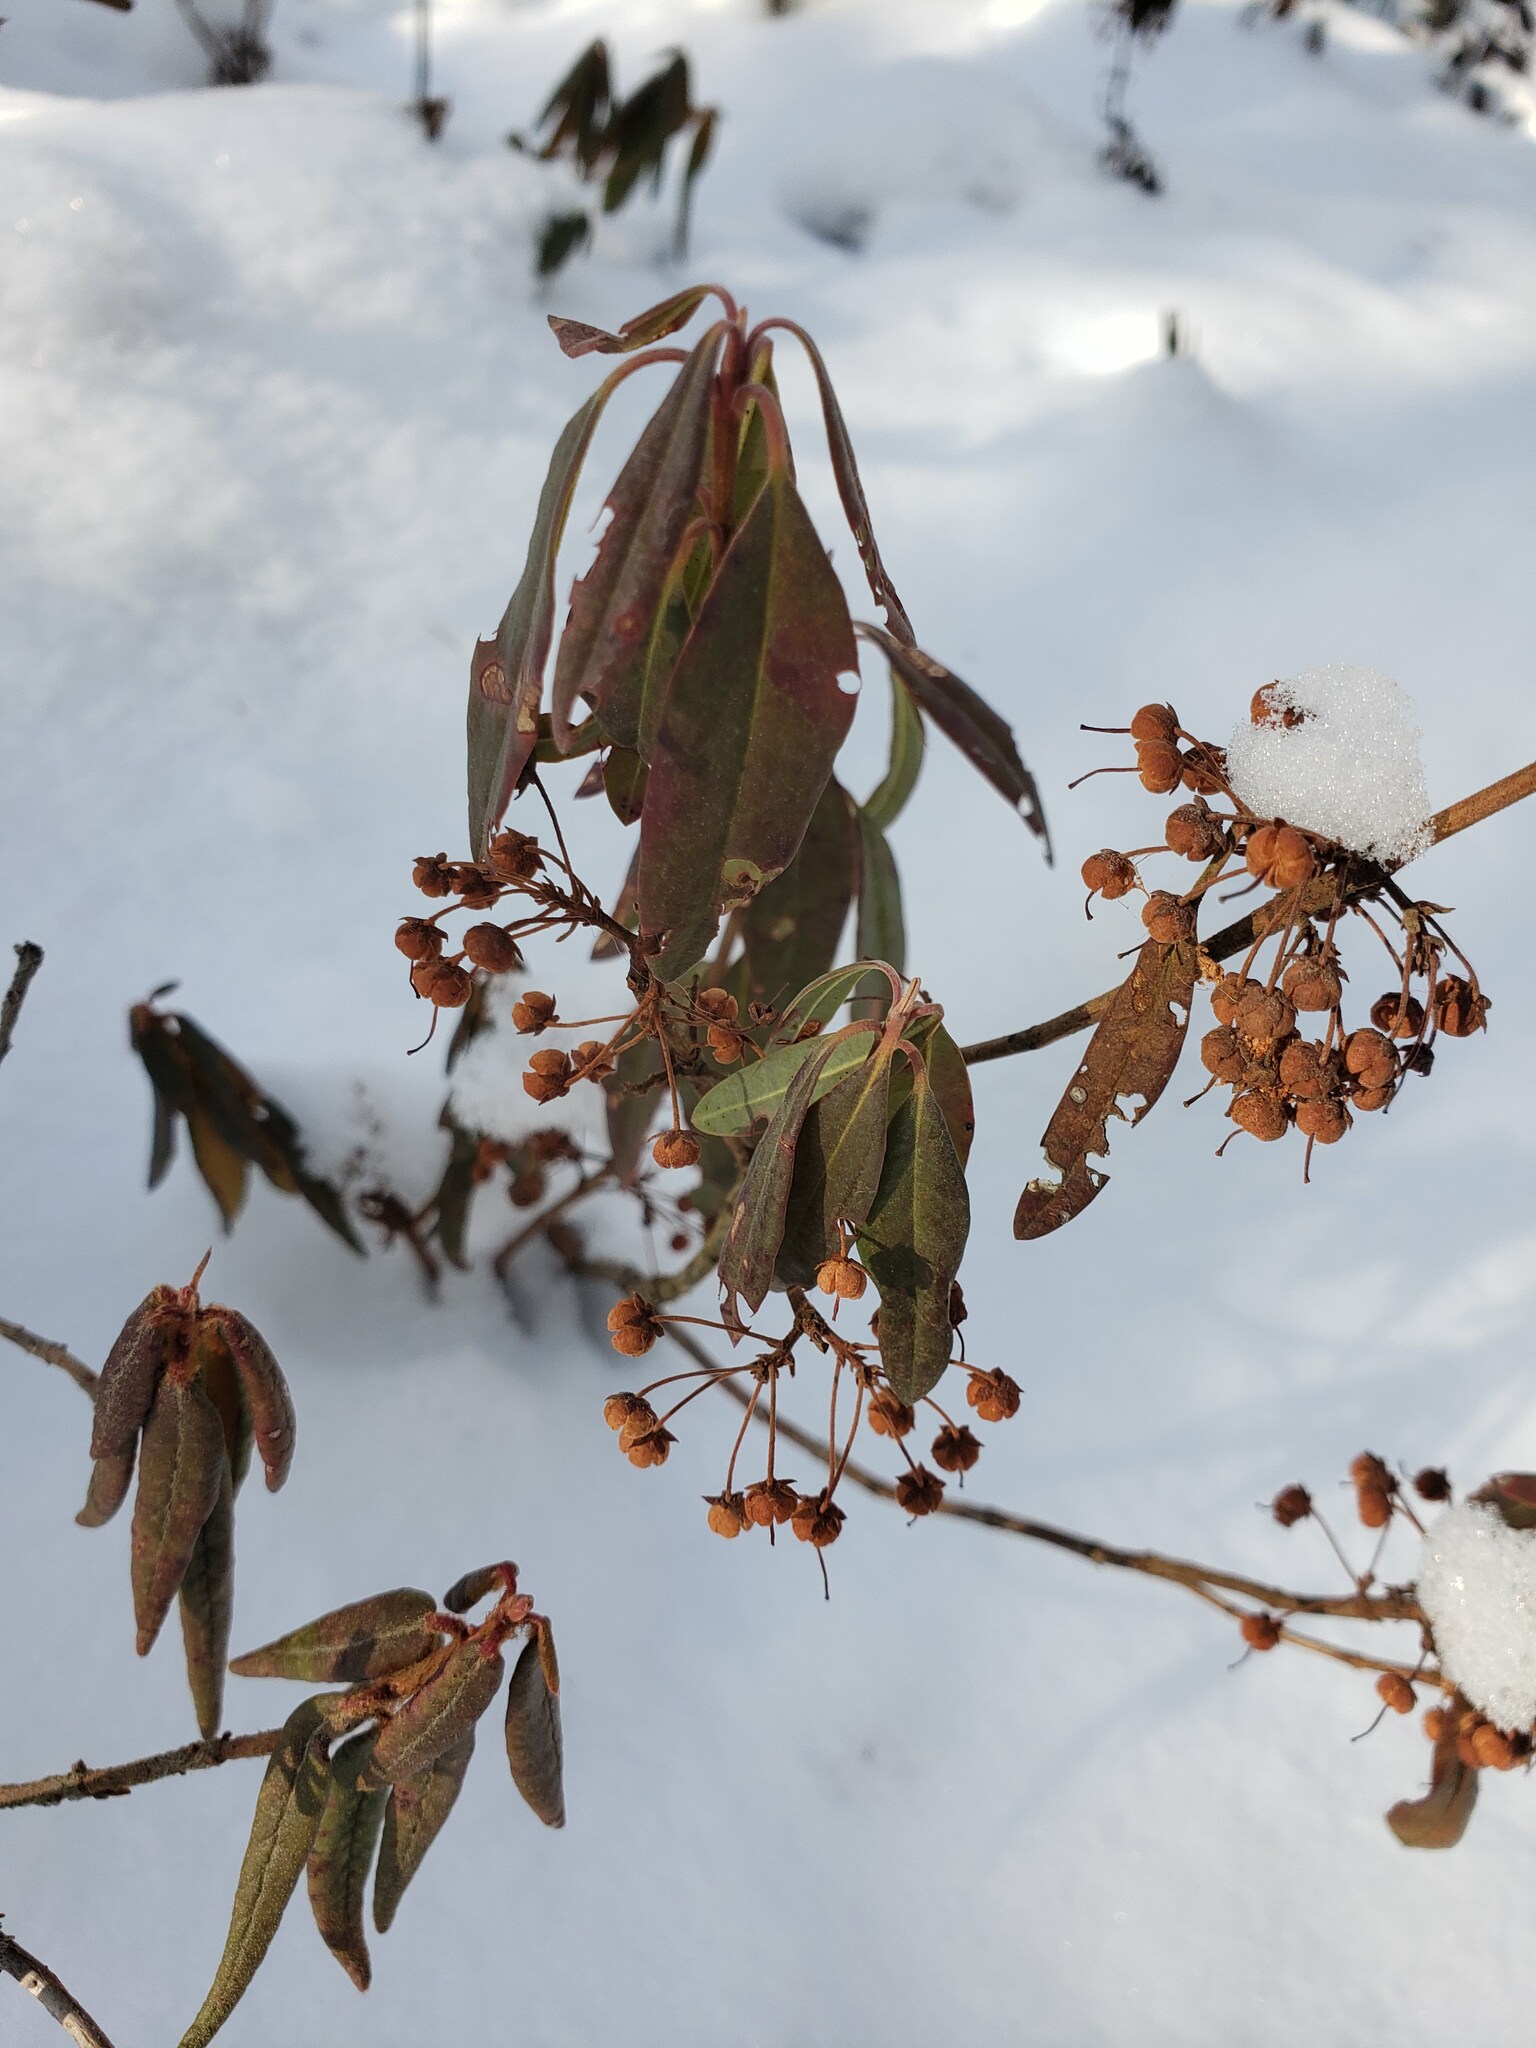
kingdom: Plantae
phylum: Tracheophyta
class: Magnoliopsida
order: Ericales
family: Ericaceae
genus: Kalmia
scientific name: Kalmia angustifolia
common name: Sheep-laurel
